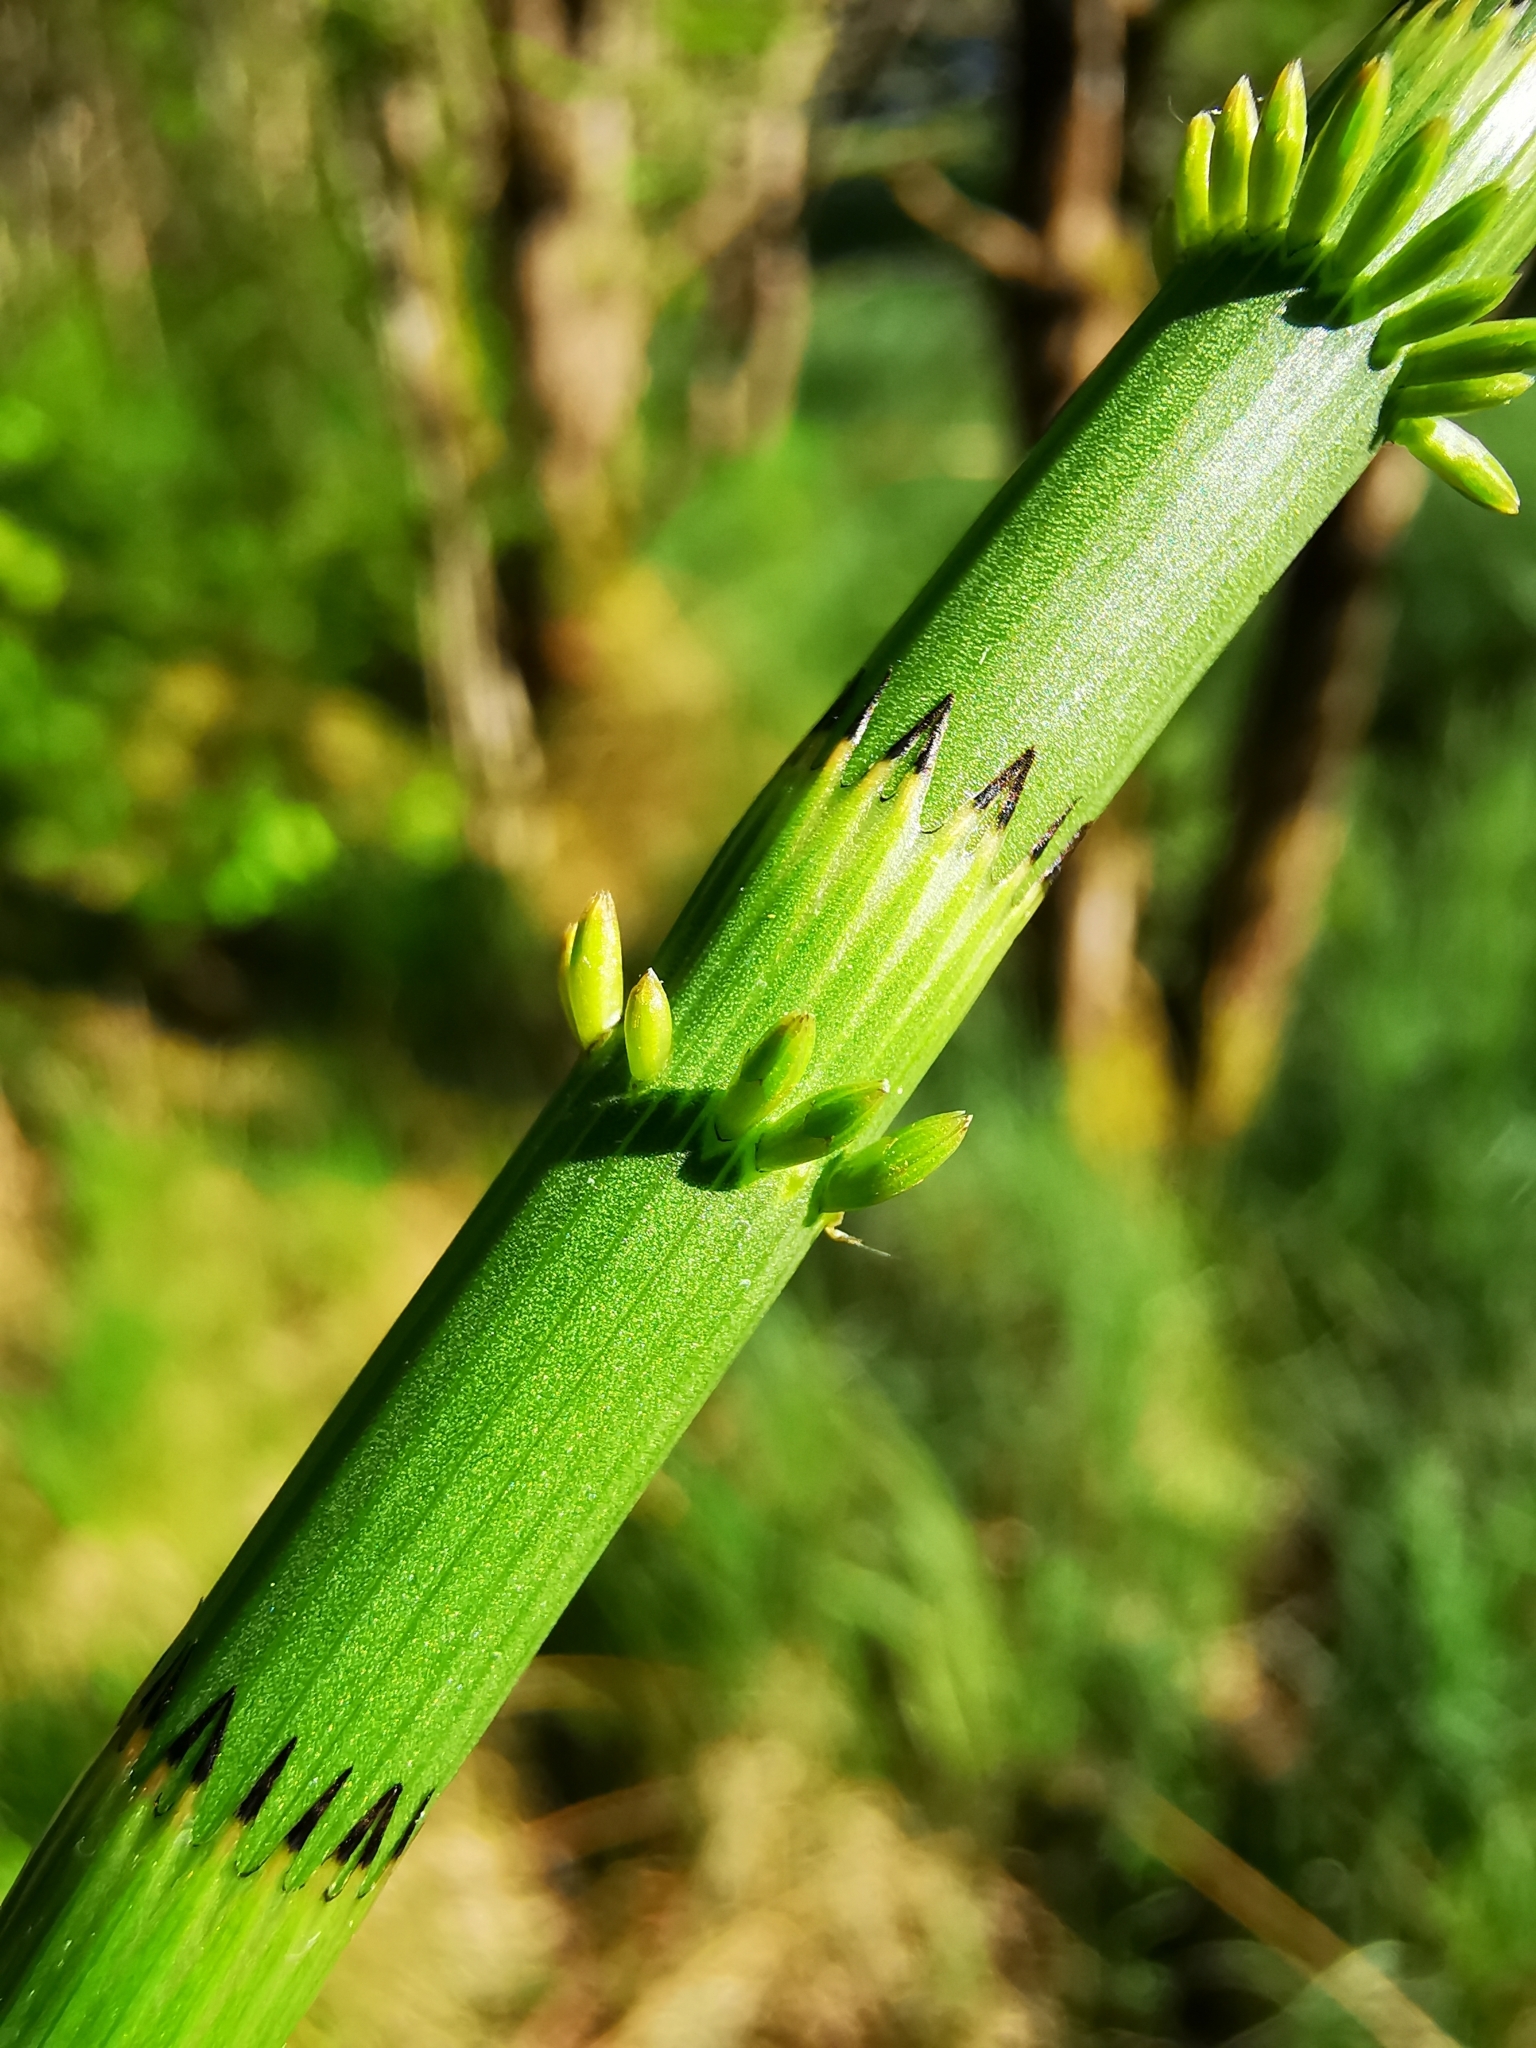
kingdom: Plantae
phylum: Tracheophyta
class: Polypodiopsida
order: Equisetales
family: Equisetaceae
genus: Equisetum
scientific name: Equisetum fluviatile
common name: Water horsetail
